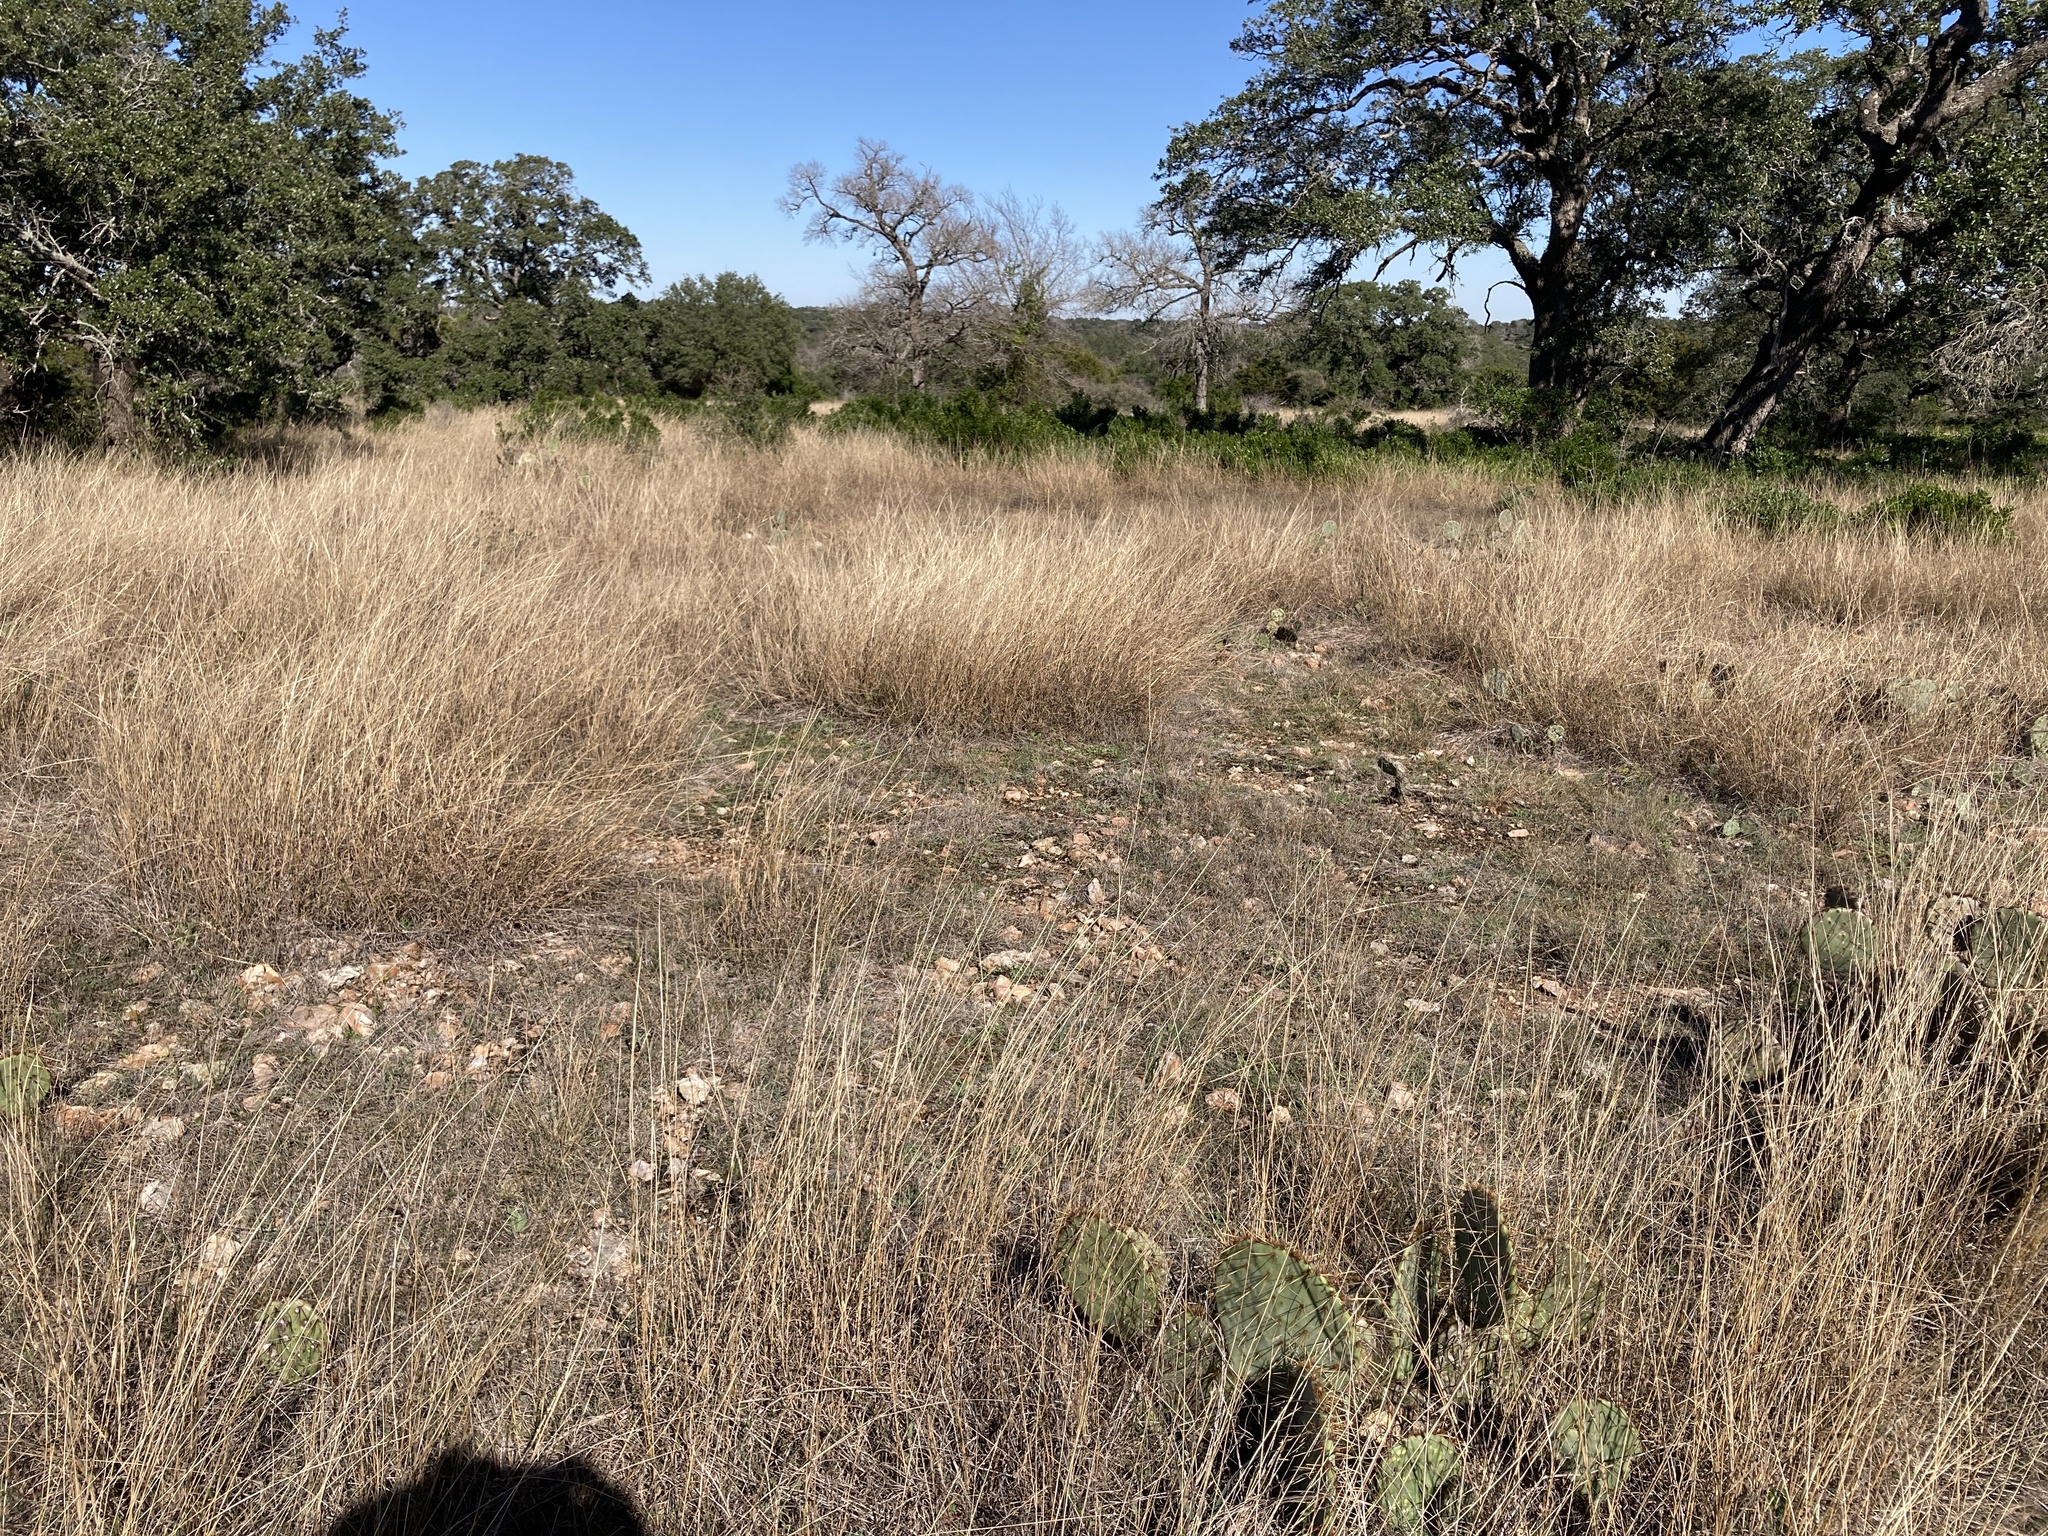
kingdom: Plantae
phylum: Tracheophyta
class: Liliopsida
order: Poales
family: Poaceae
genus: Bouteloua
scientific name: Bouteloua hirsuta
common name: Hairy grama
